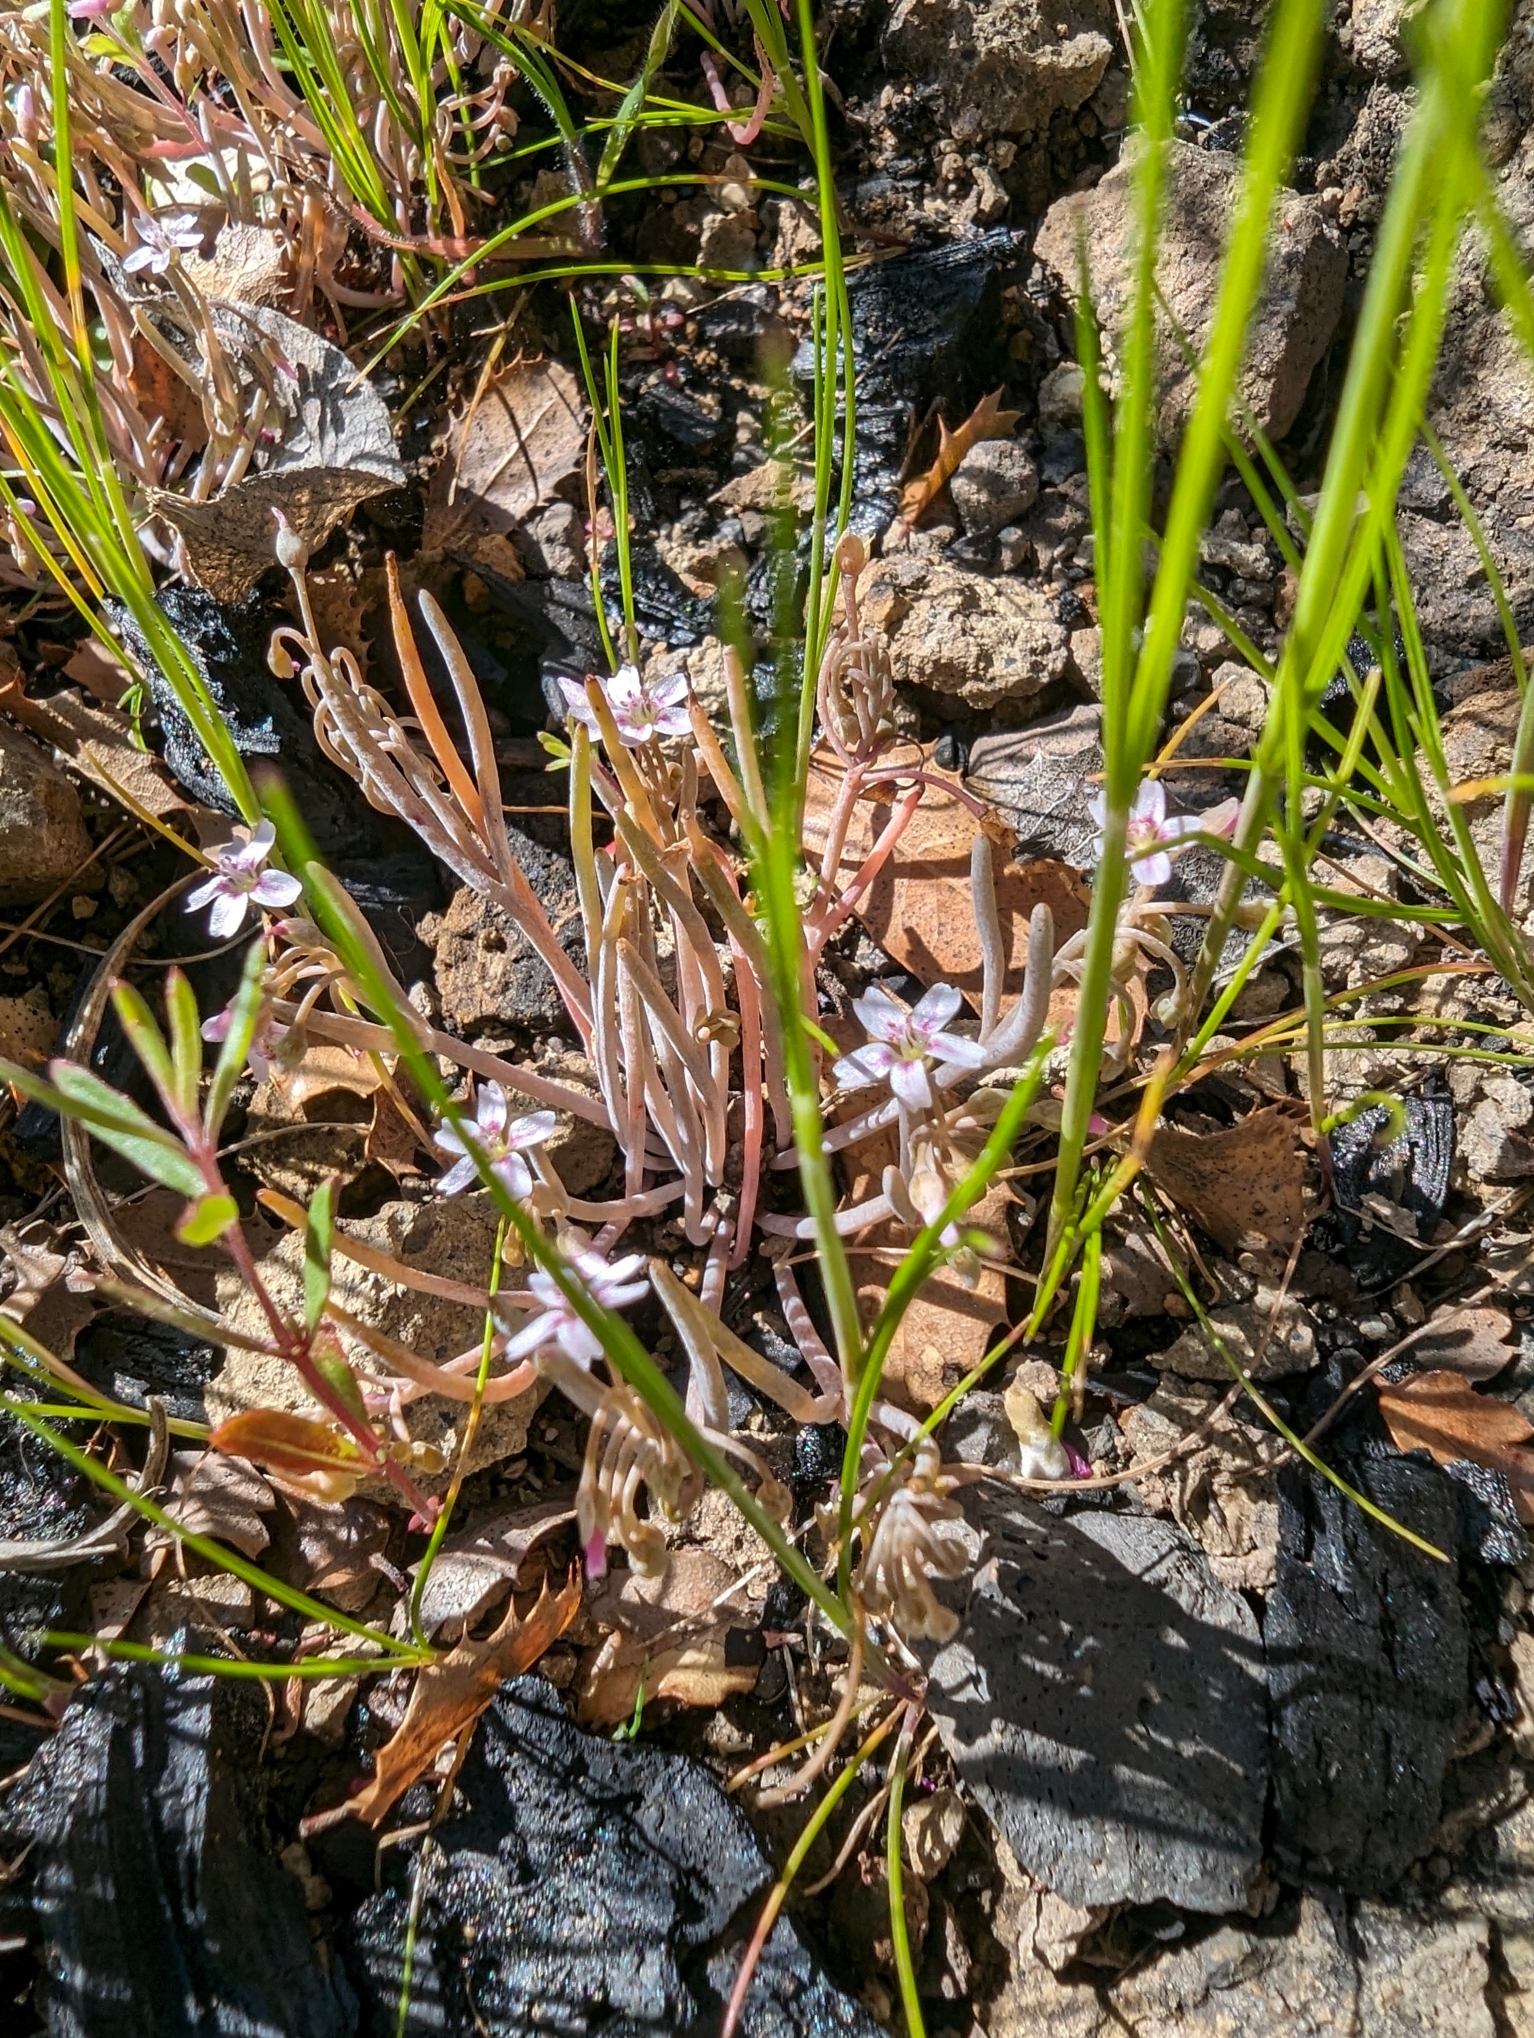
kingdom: Plantae
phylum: Tracheophyta
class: Magnoliopsida
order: Caryophyllales
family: Montiaceae
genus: Claytonia
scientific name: Claytonia exigua
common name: Pale spring beauty
